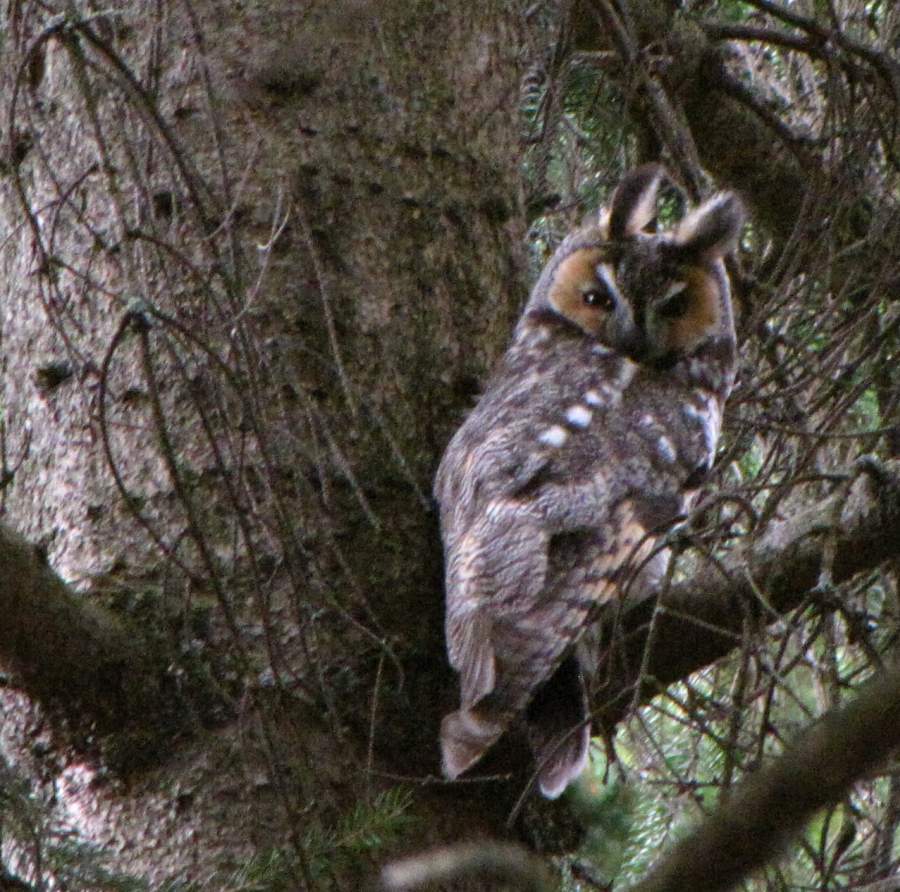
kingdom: Animalia
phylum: Chordata
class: Aves
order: Strigiformes
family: Strigidae
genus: Asio
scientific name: Asio otus
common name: Long-eared owl
